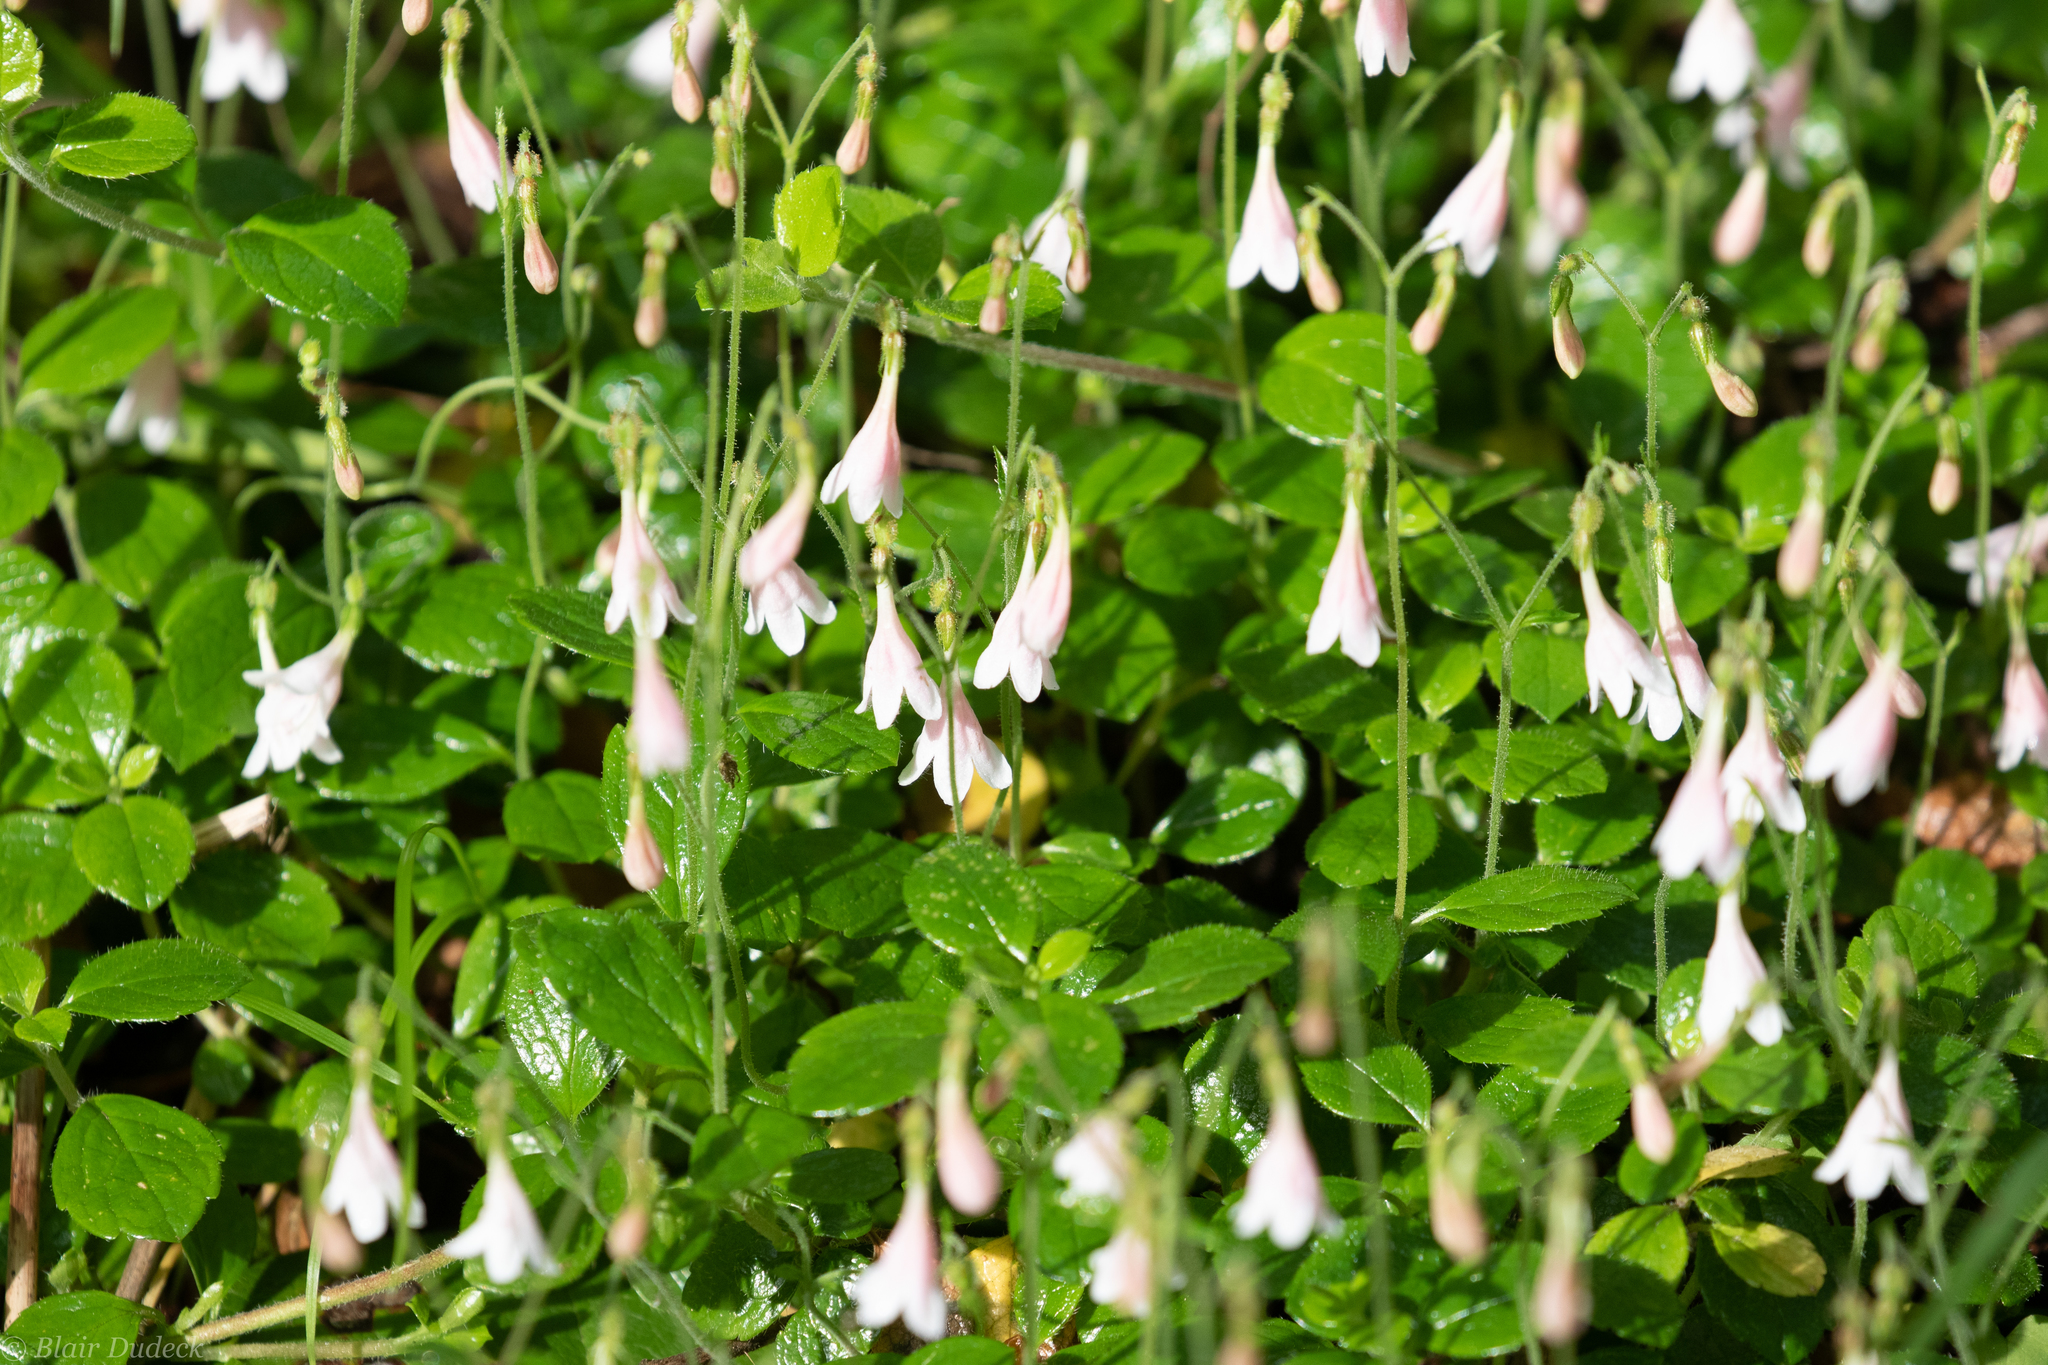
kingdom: Plantae
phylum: Tracheophyta
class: Magnoliopsida
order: Dipsacales
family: Caprifoliaceae
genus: Linnaea
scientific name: Linnaea borealis
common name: Twinflower
